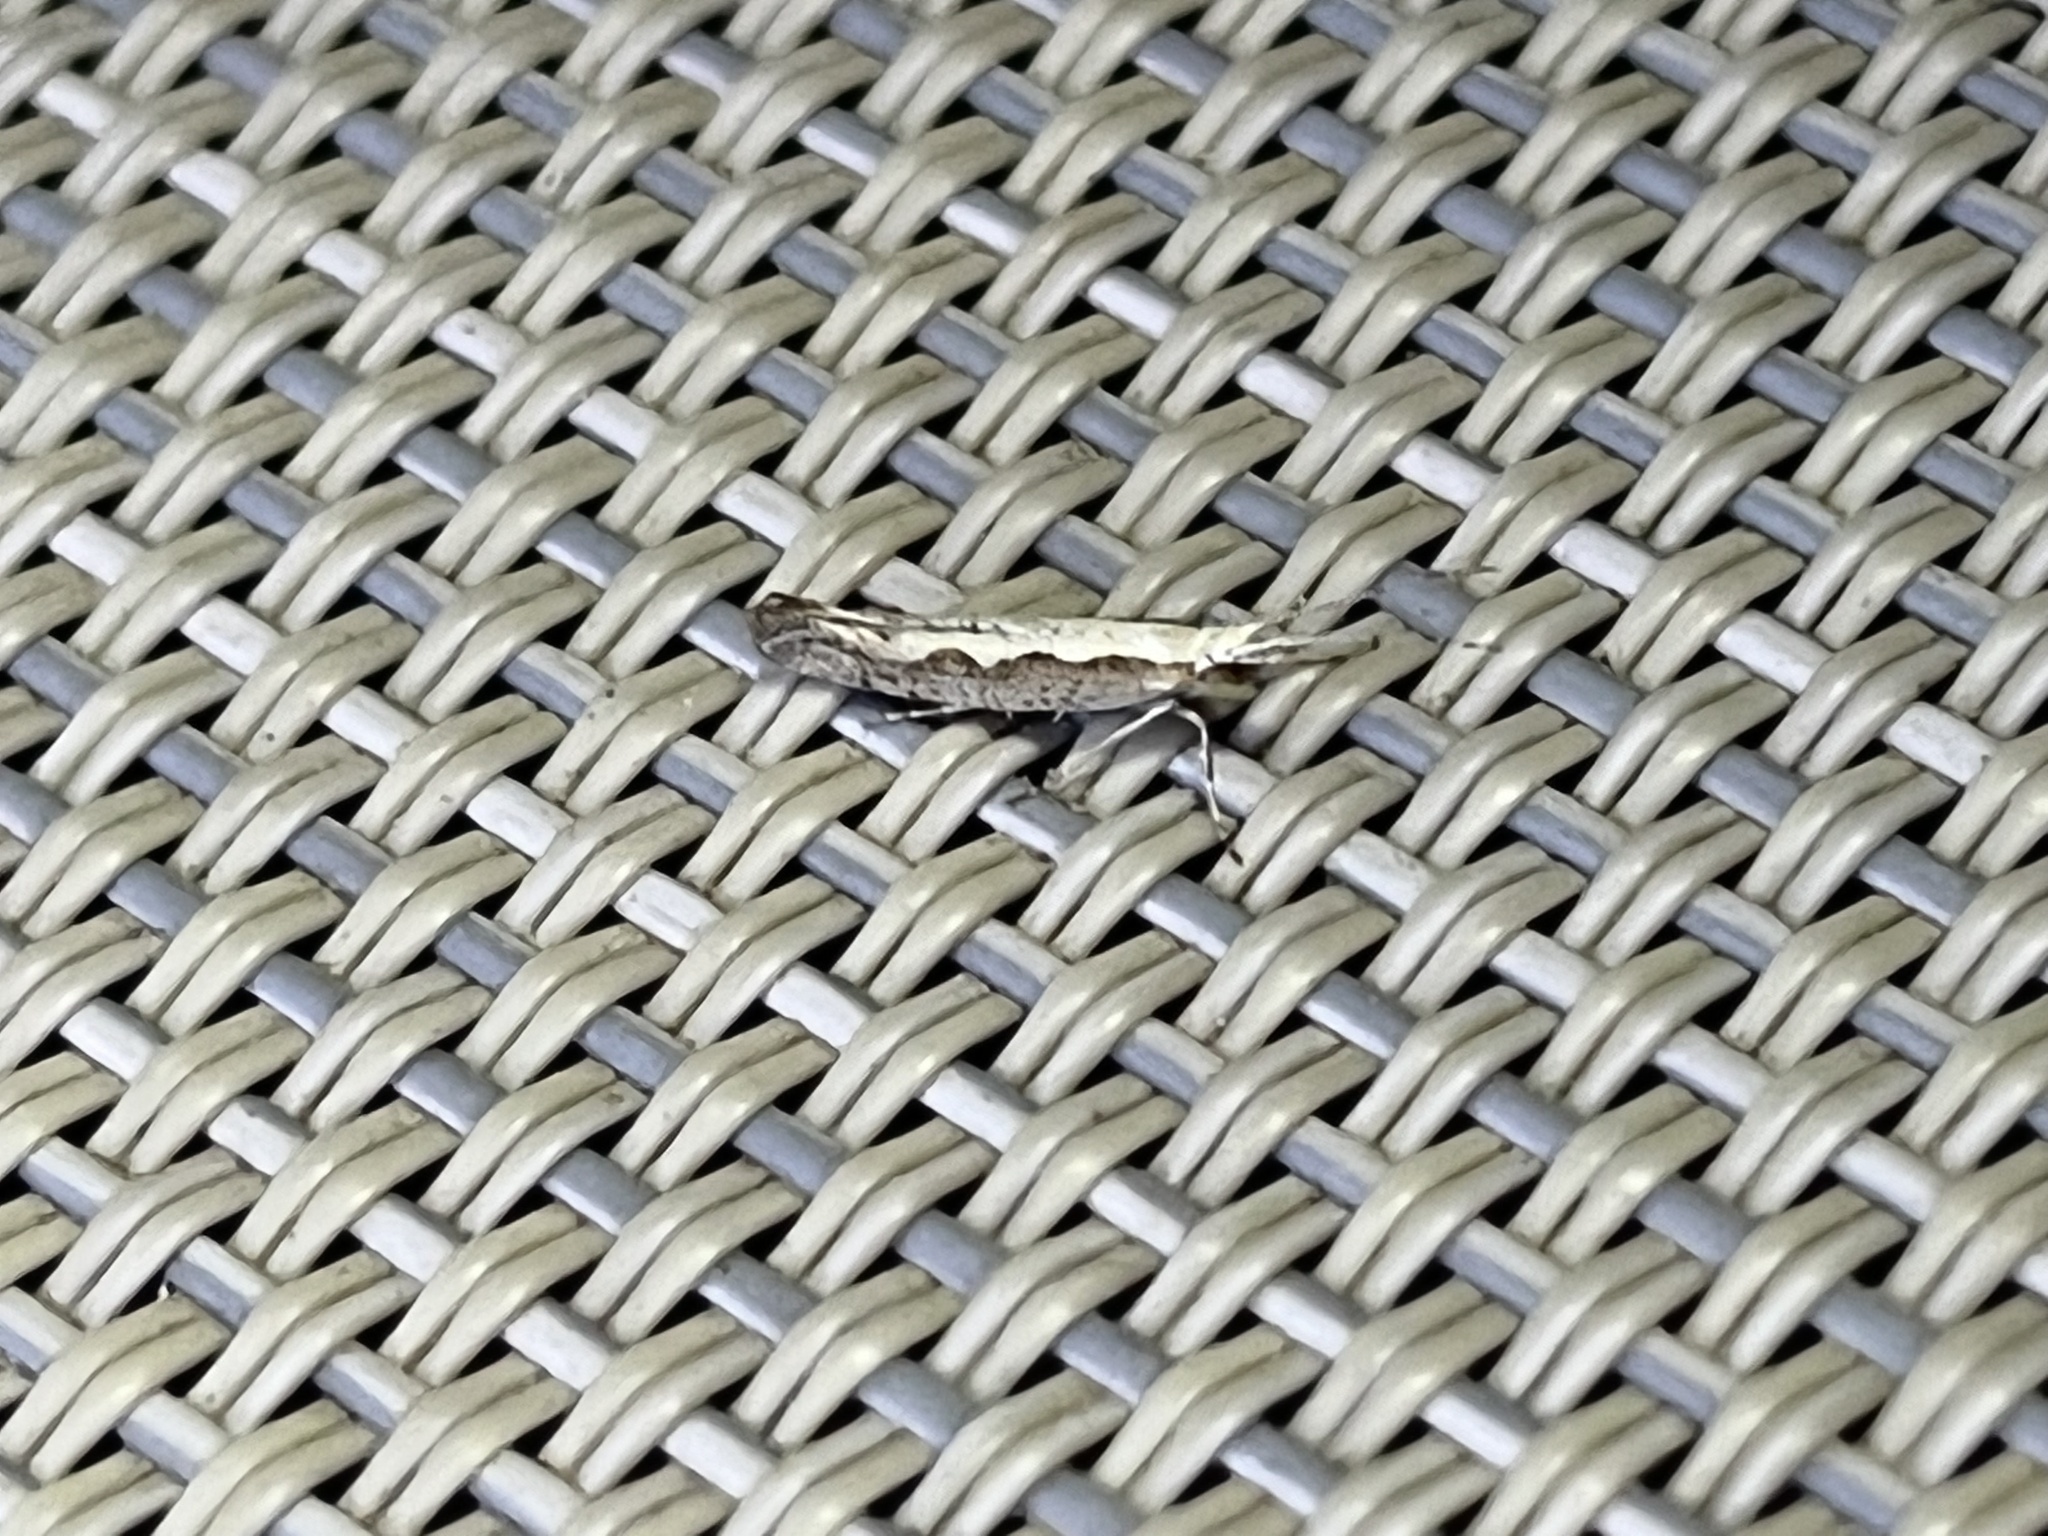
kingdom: Animalia
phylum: Arthropoda
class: Insecta
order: Lepidoptera
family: Plutellidae
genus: Plutella
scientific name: Plutella xylostella
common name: Diamond-back moth
